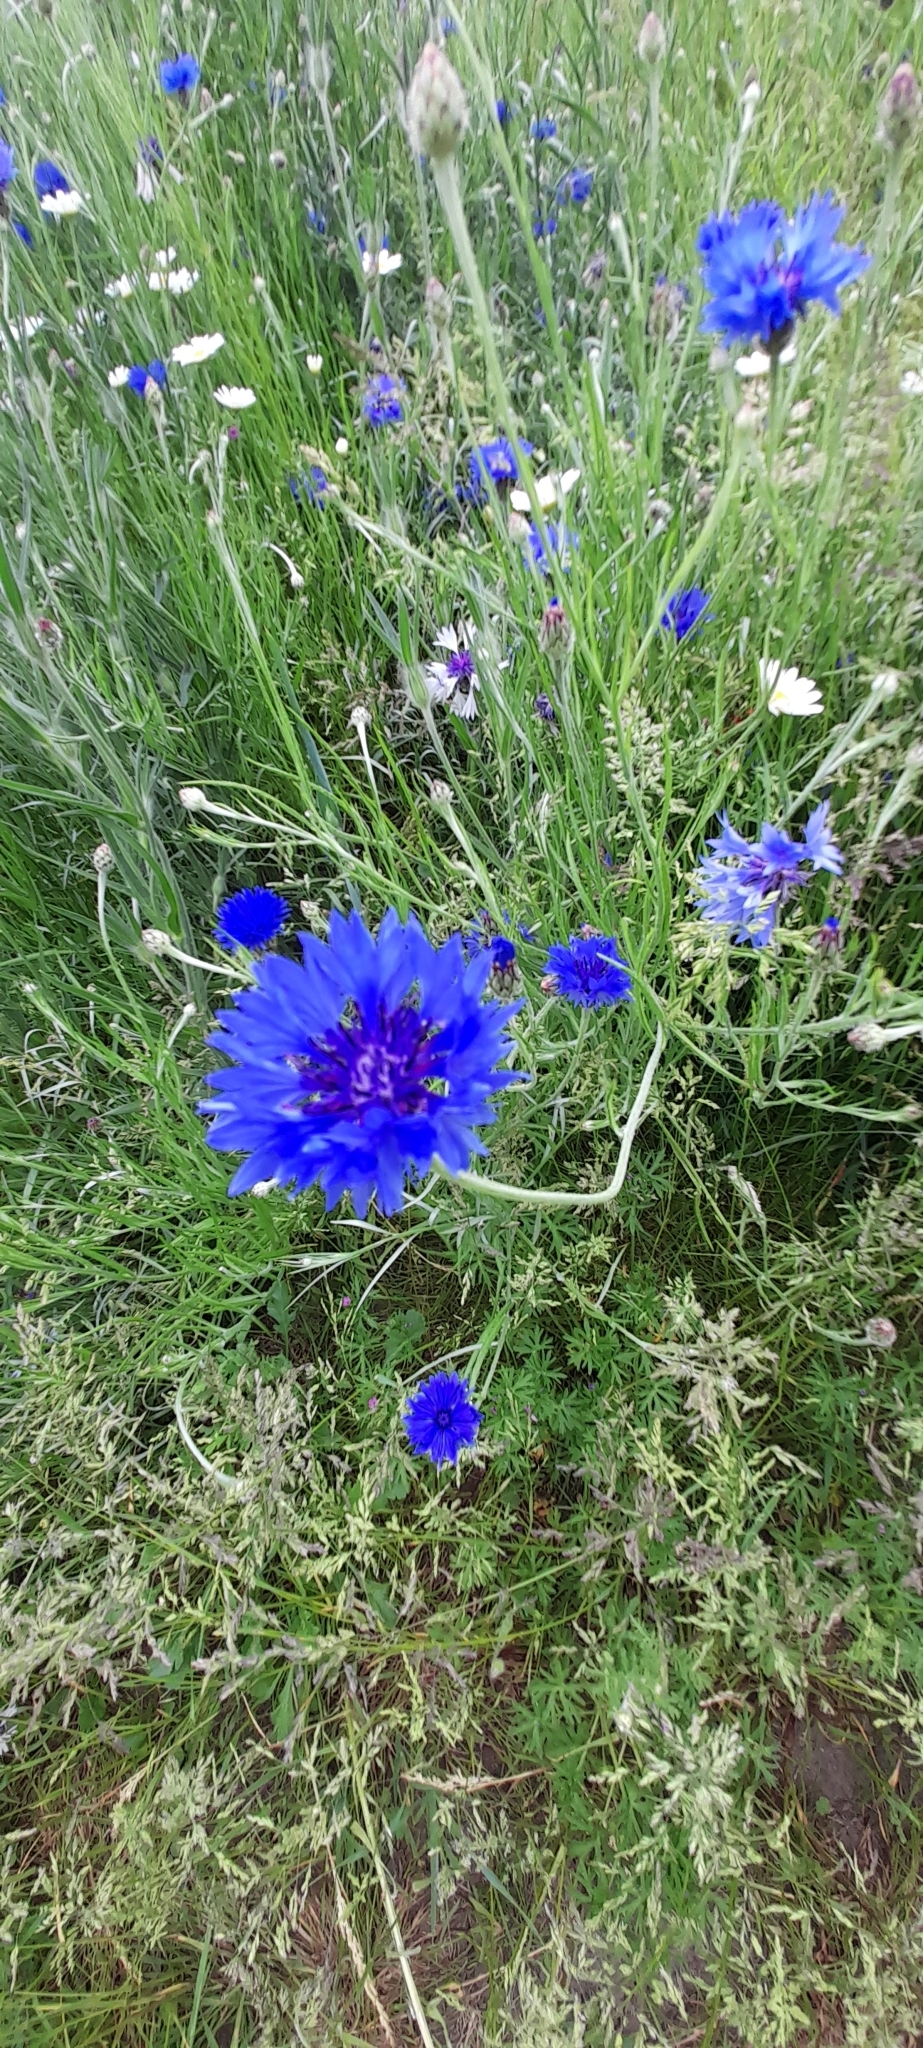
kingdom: Plantae
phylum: Tracheophyta
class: Magnoliopsida
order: Asterales
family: Asteraceae
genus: Centaurea
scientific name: Centaurea cyanus
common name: Cornflower
